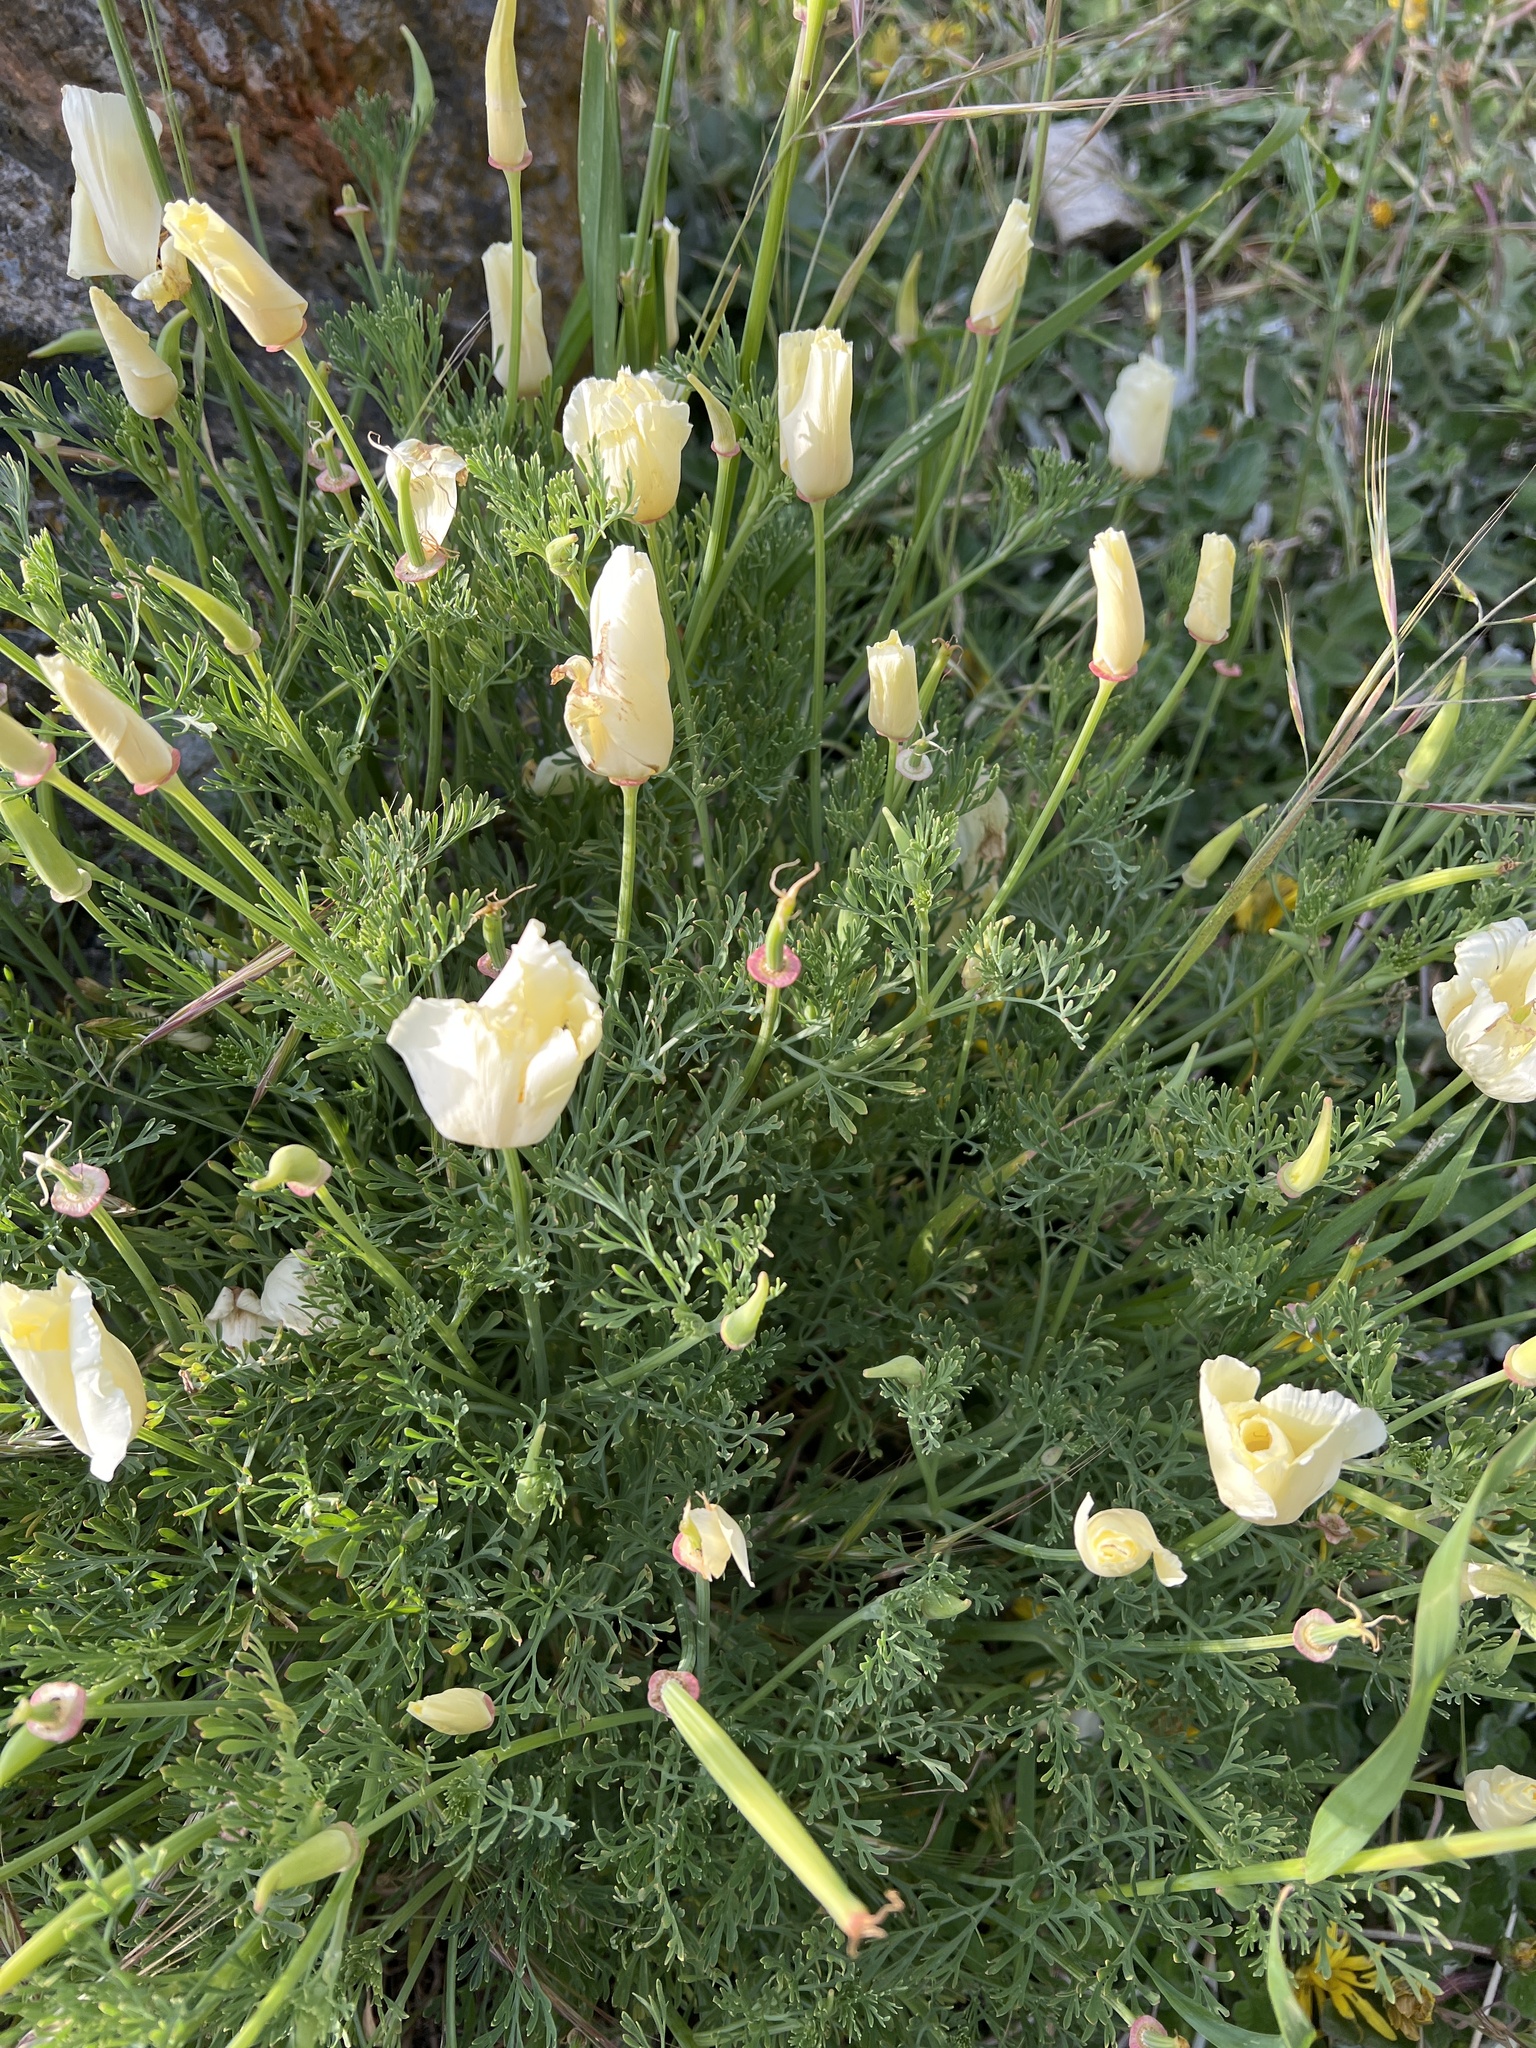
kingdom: Plantae
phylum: Tracheophyta
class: Magnoliopsida
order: Ranunculales
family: Papaveraceae
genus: Eschscholzia
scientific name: Eschscholzia californica
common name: California poppy
